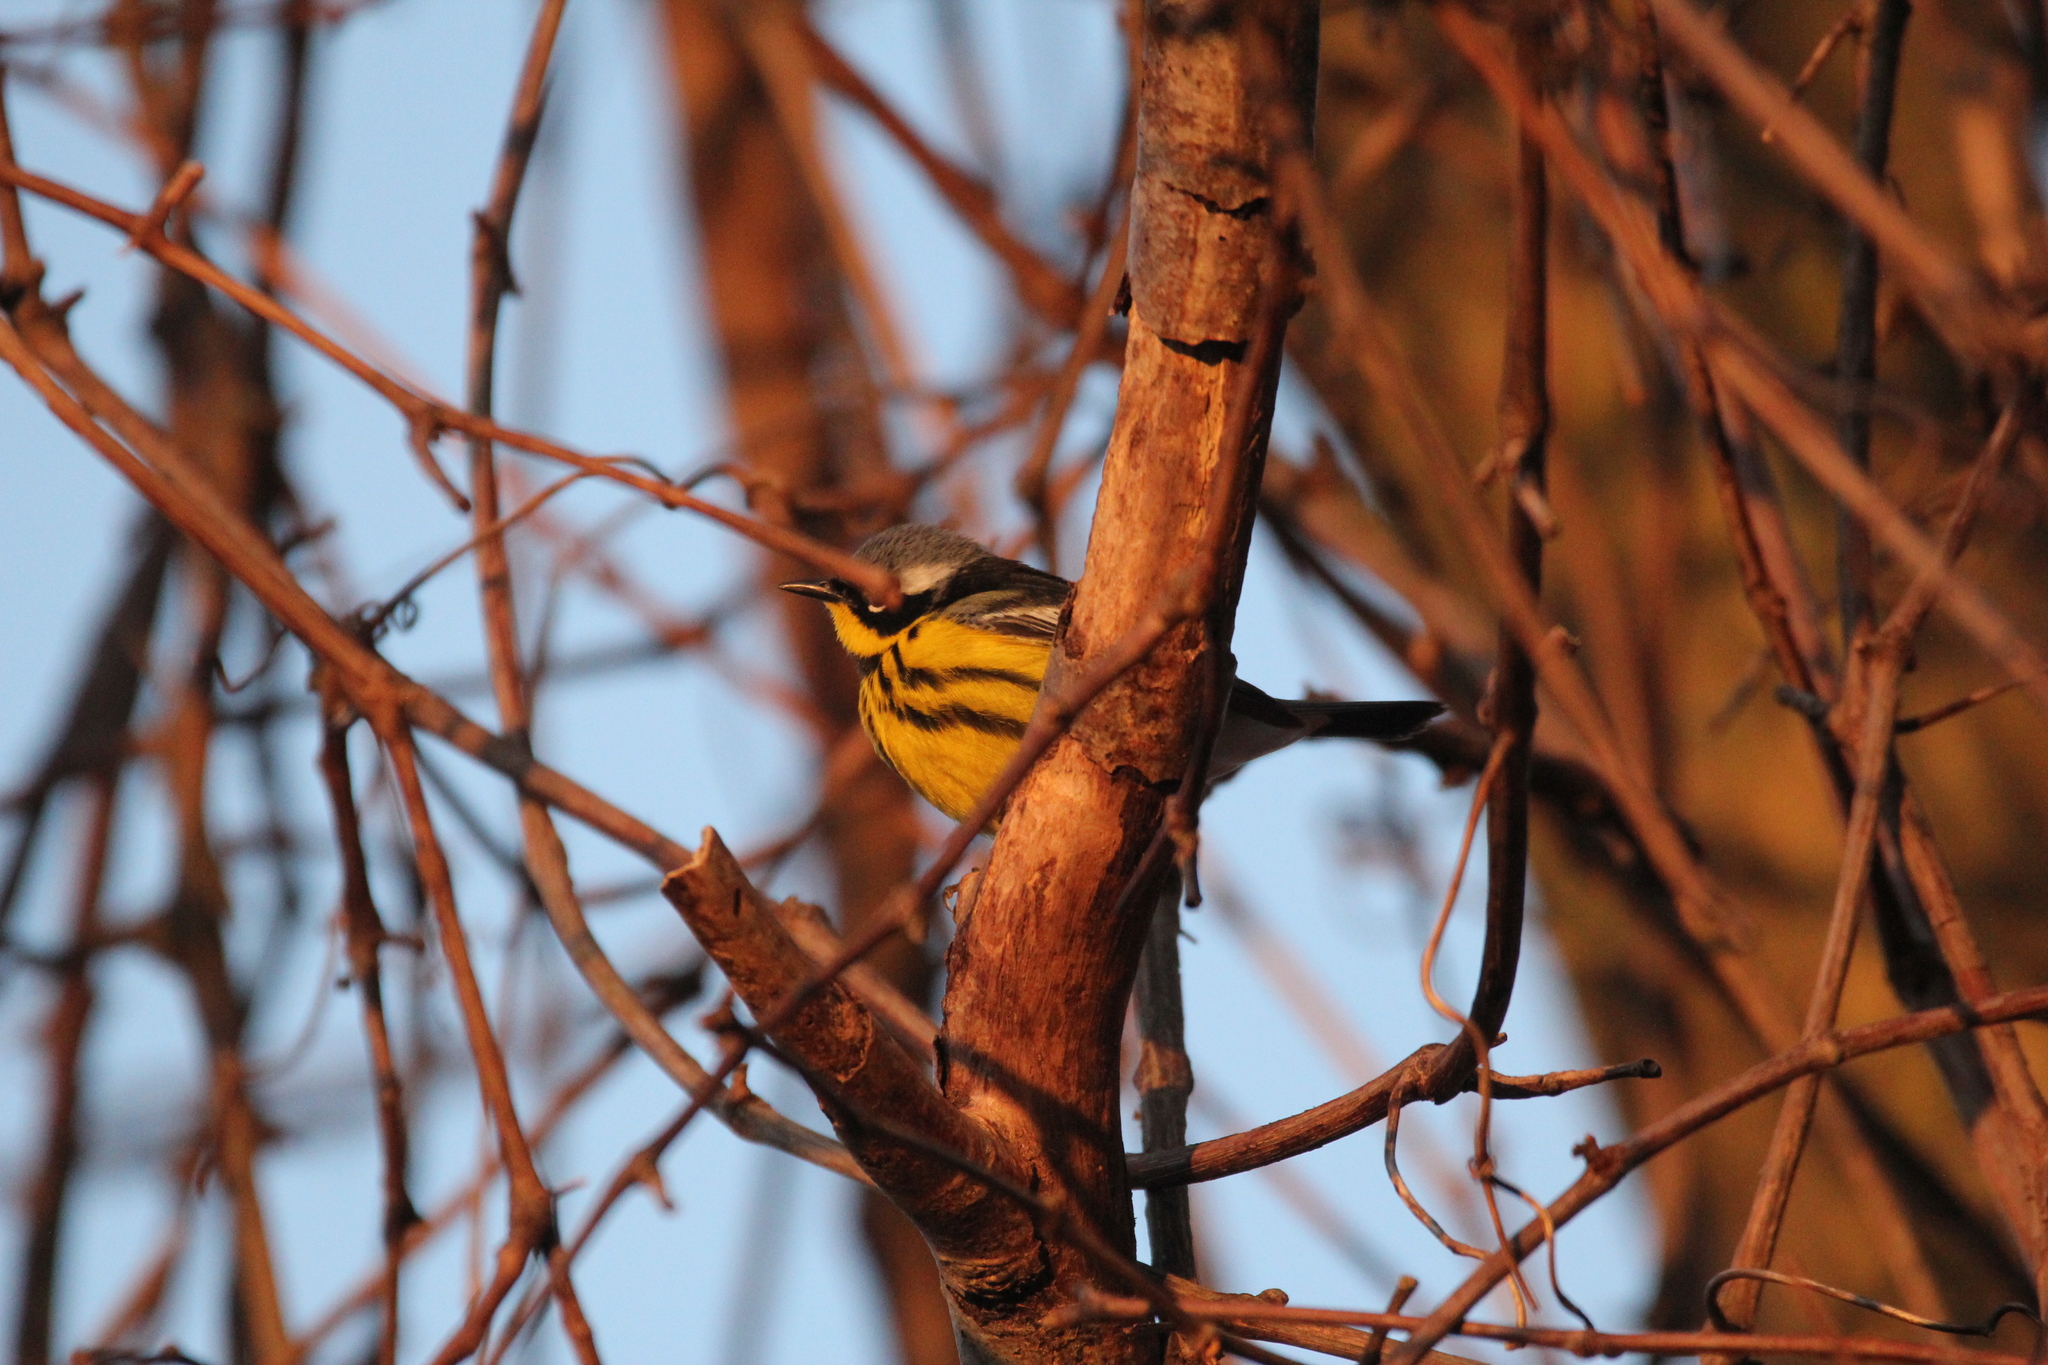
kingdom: Animalia
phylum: Chordata
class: Aves
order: Passeriformes
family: Parulidae
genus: Setophaga
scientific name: Setophaga magnolia
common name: Magnolia warbler
